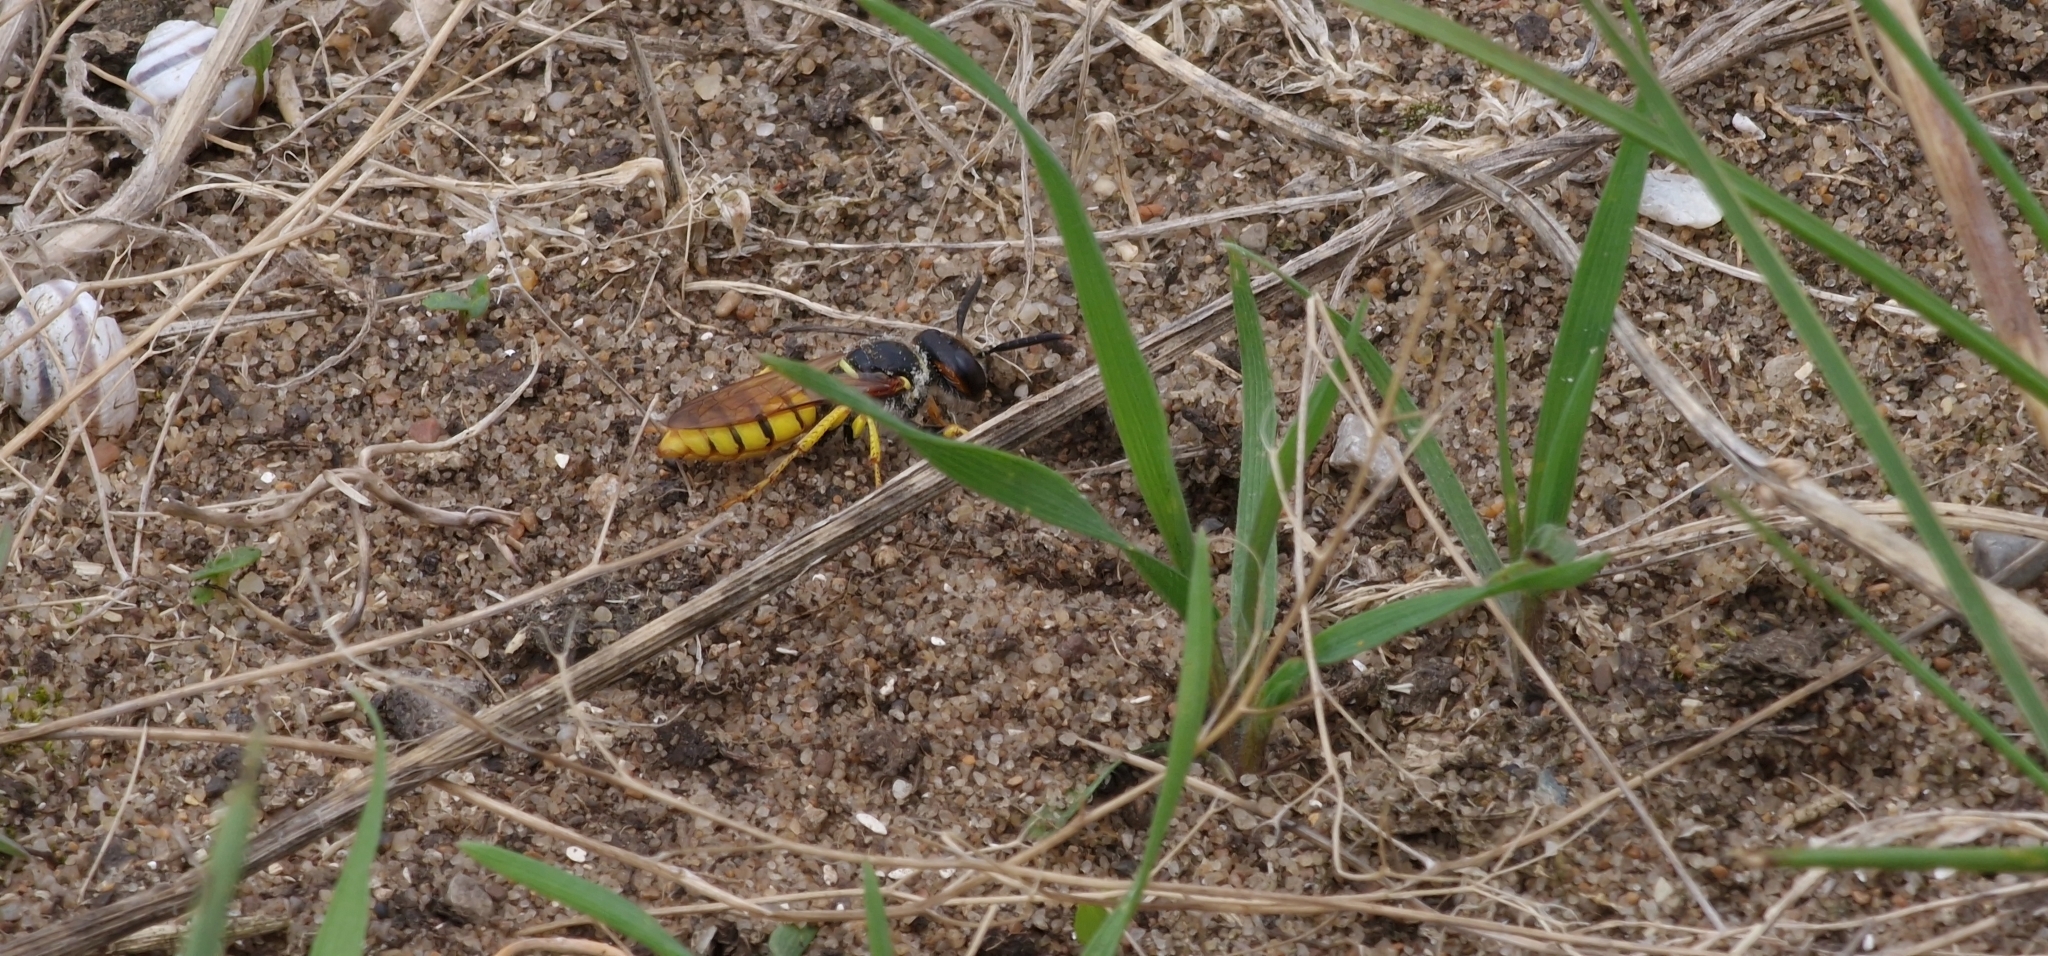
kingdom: Animalia
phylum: Arthropoda
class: Insecta
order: Hymenoptera
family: Crabronidae
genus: Philanthus
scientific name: Philanthus triangulum
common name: Bee wolf
